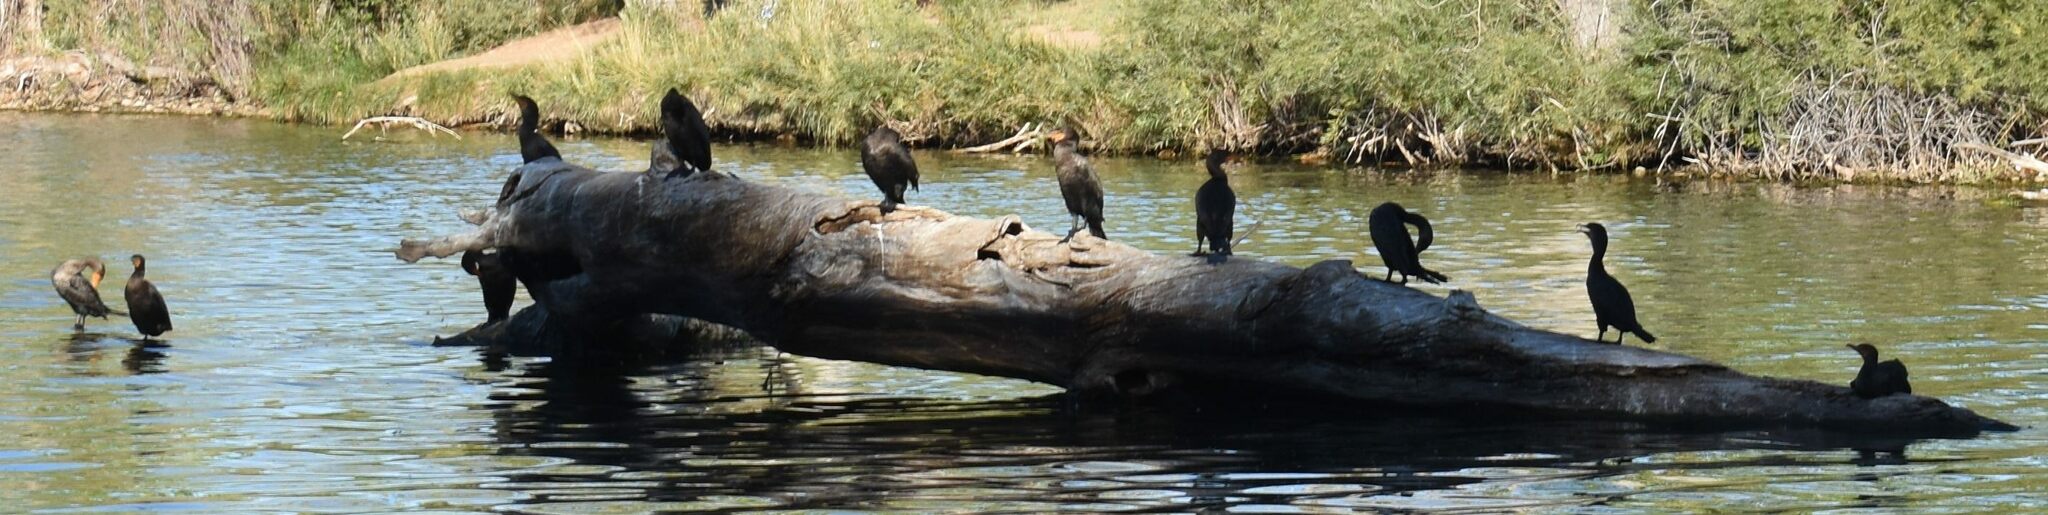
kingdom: Animalia
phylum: Chordata
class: Aves
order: Suliformes
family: Phalacrocoracidae
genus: Phalacrocorax
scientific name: Phalacrocorax auritus
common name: Double-crested cormorant
